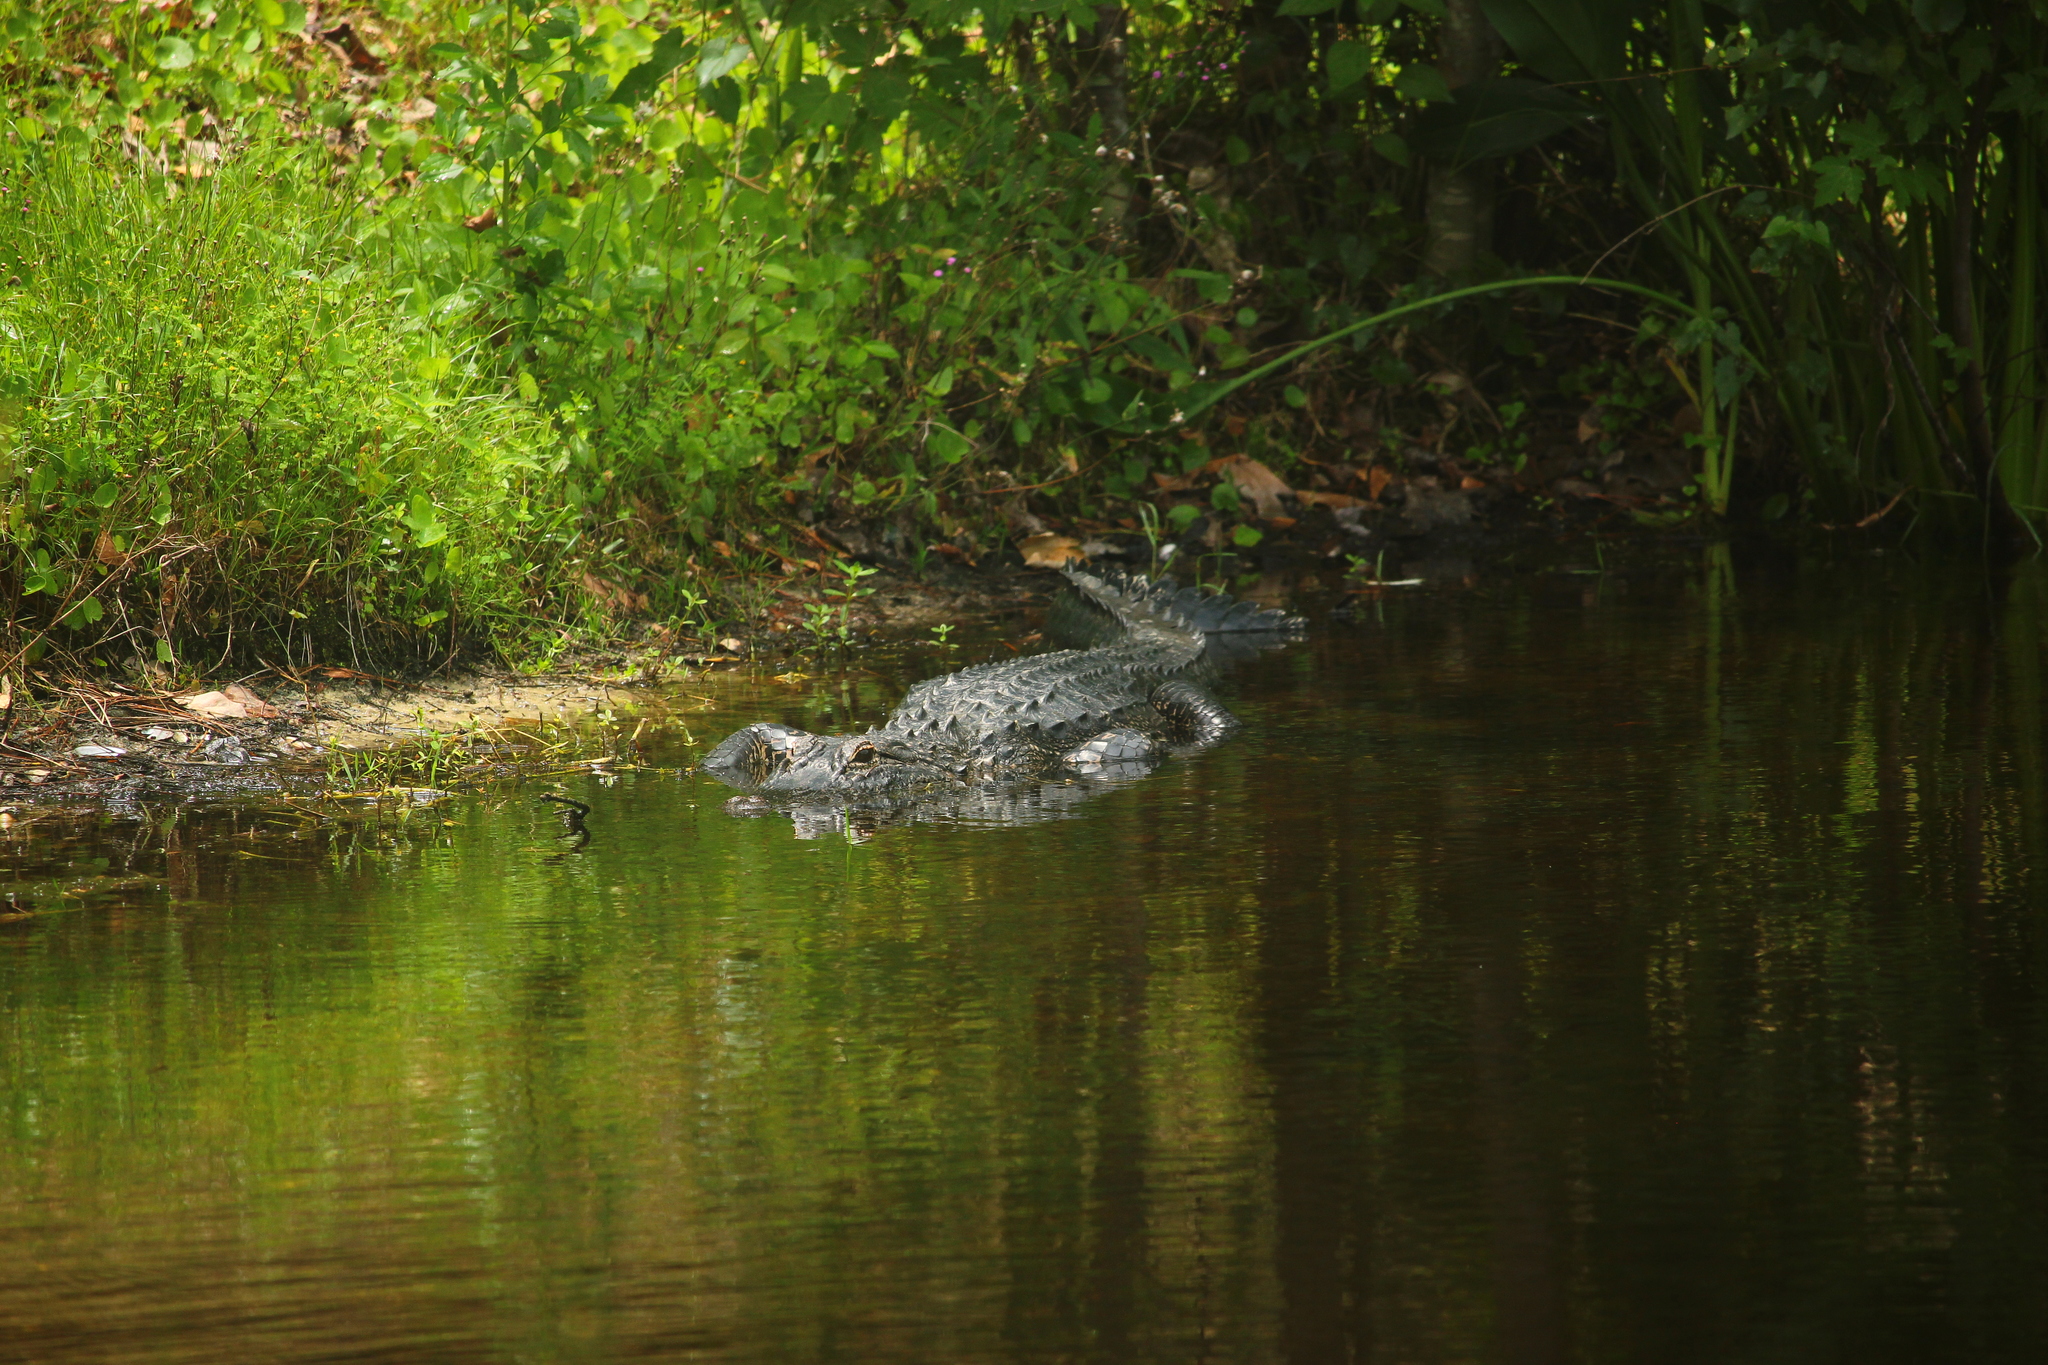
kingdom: Animalia
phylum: Chordata
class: Crocodylia
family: Alligatoridae
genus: Alligator
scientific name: Alligator mississippiensis
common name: American alligator
